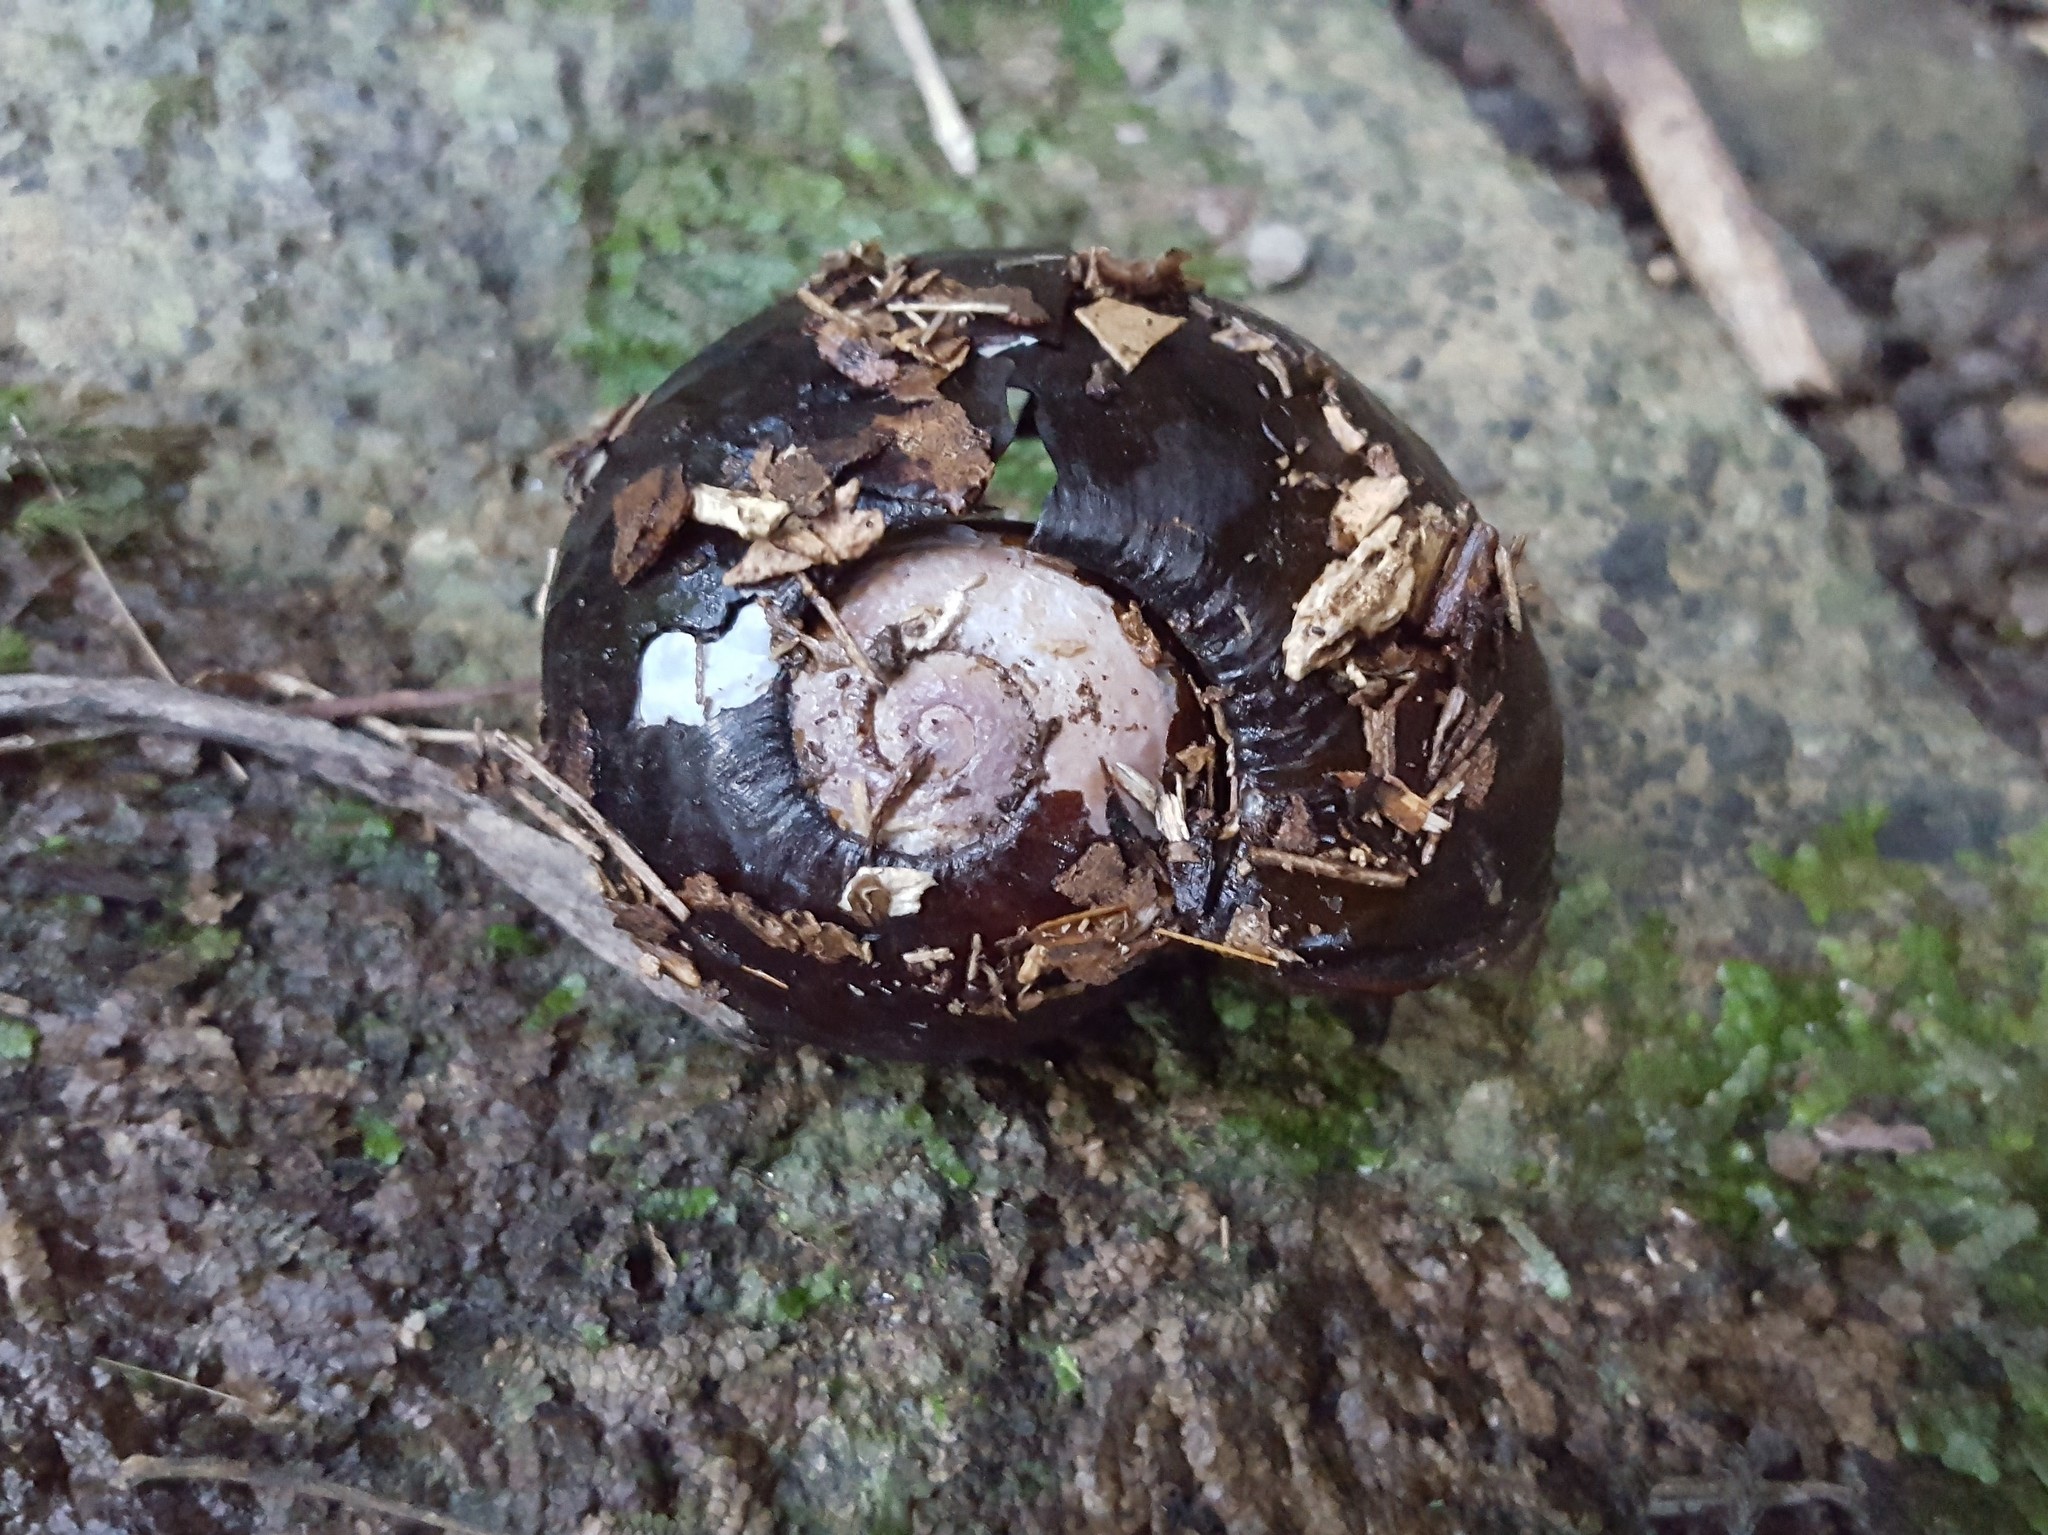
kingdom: Animalia
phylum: Mollusca
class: Gastropoda
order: Stylommatophora
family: Rhytididae
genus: Paryphanta
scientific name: Paryphanta busbyi
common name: Kauri snail
